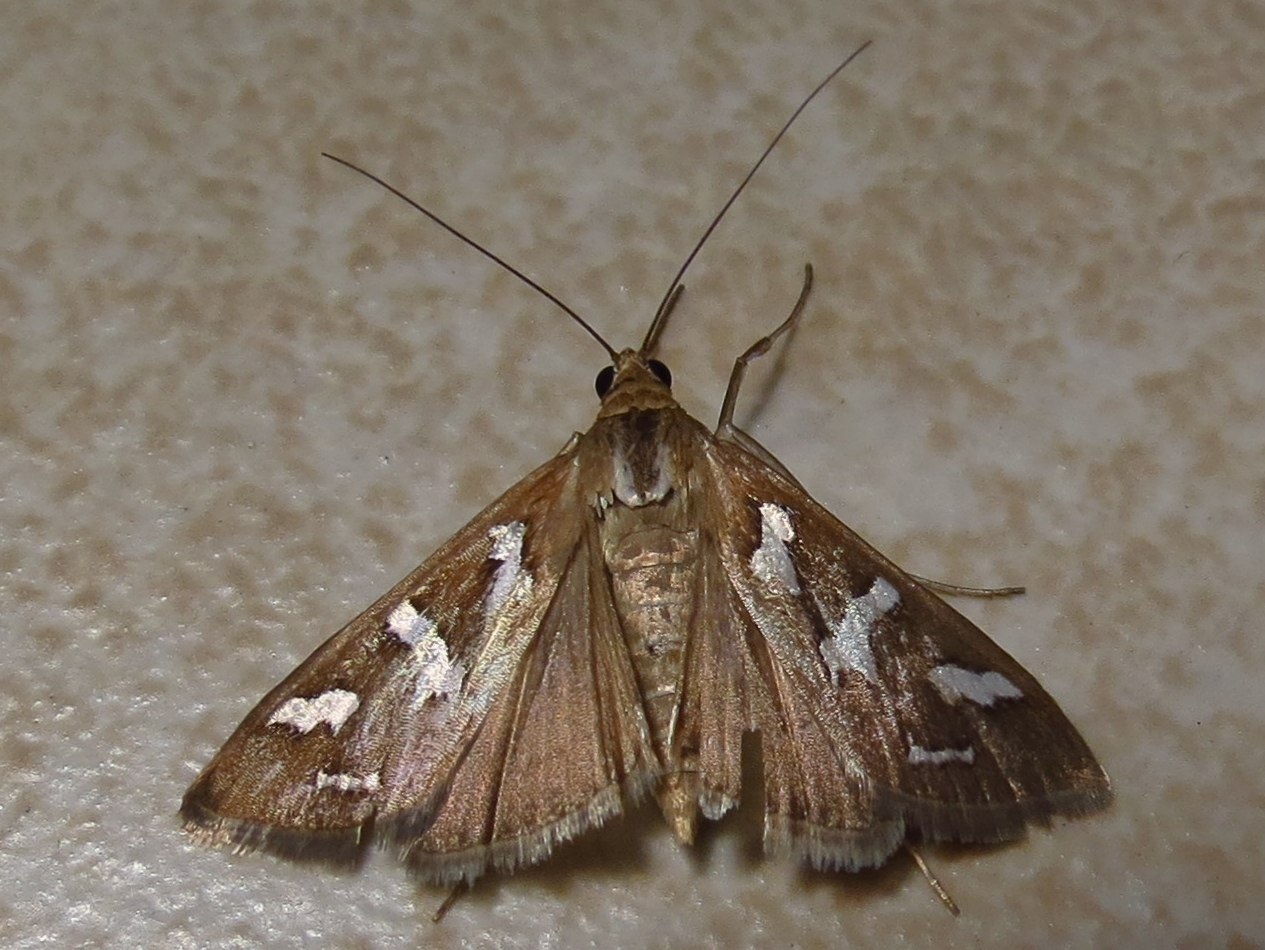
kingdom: Animalia
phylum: Arthropoda
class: Insecta
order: Lepidoptera
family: Crambidae
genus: Diastictis
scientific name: Diastictis fracturalis
